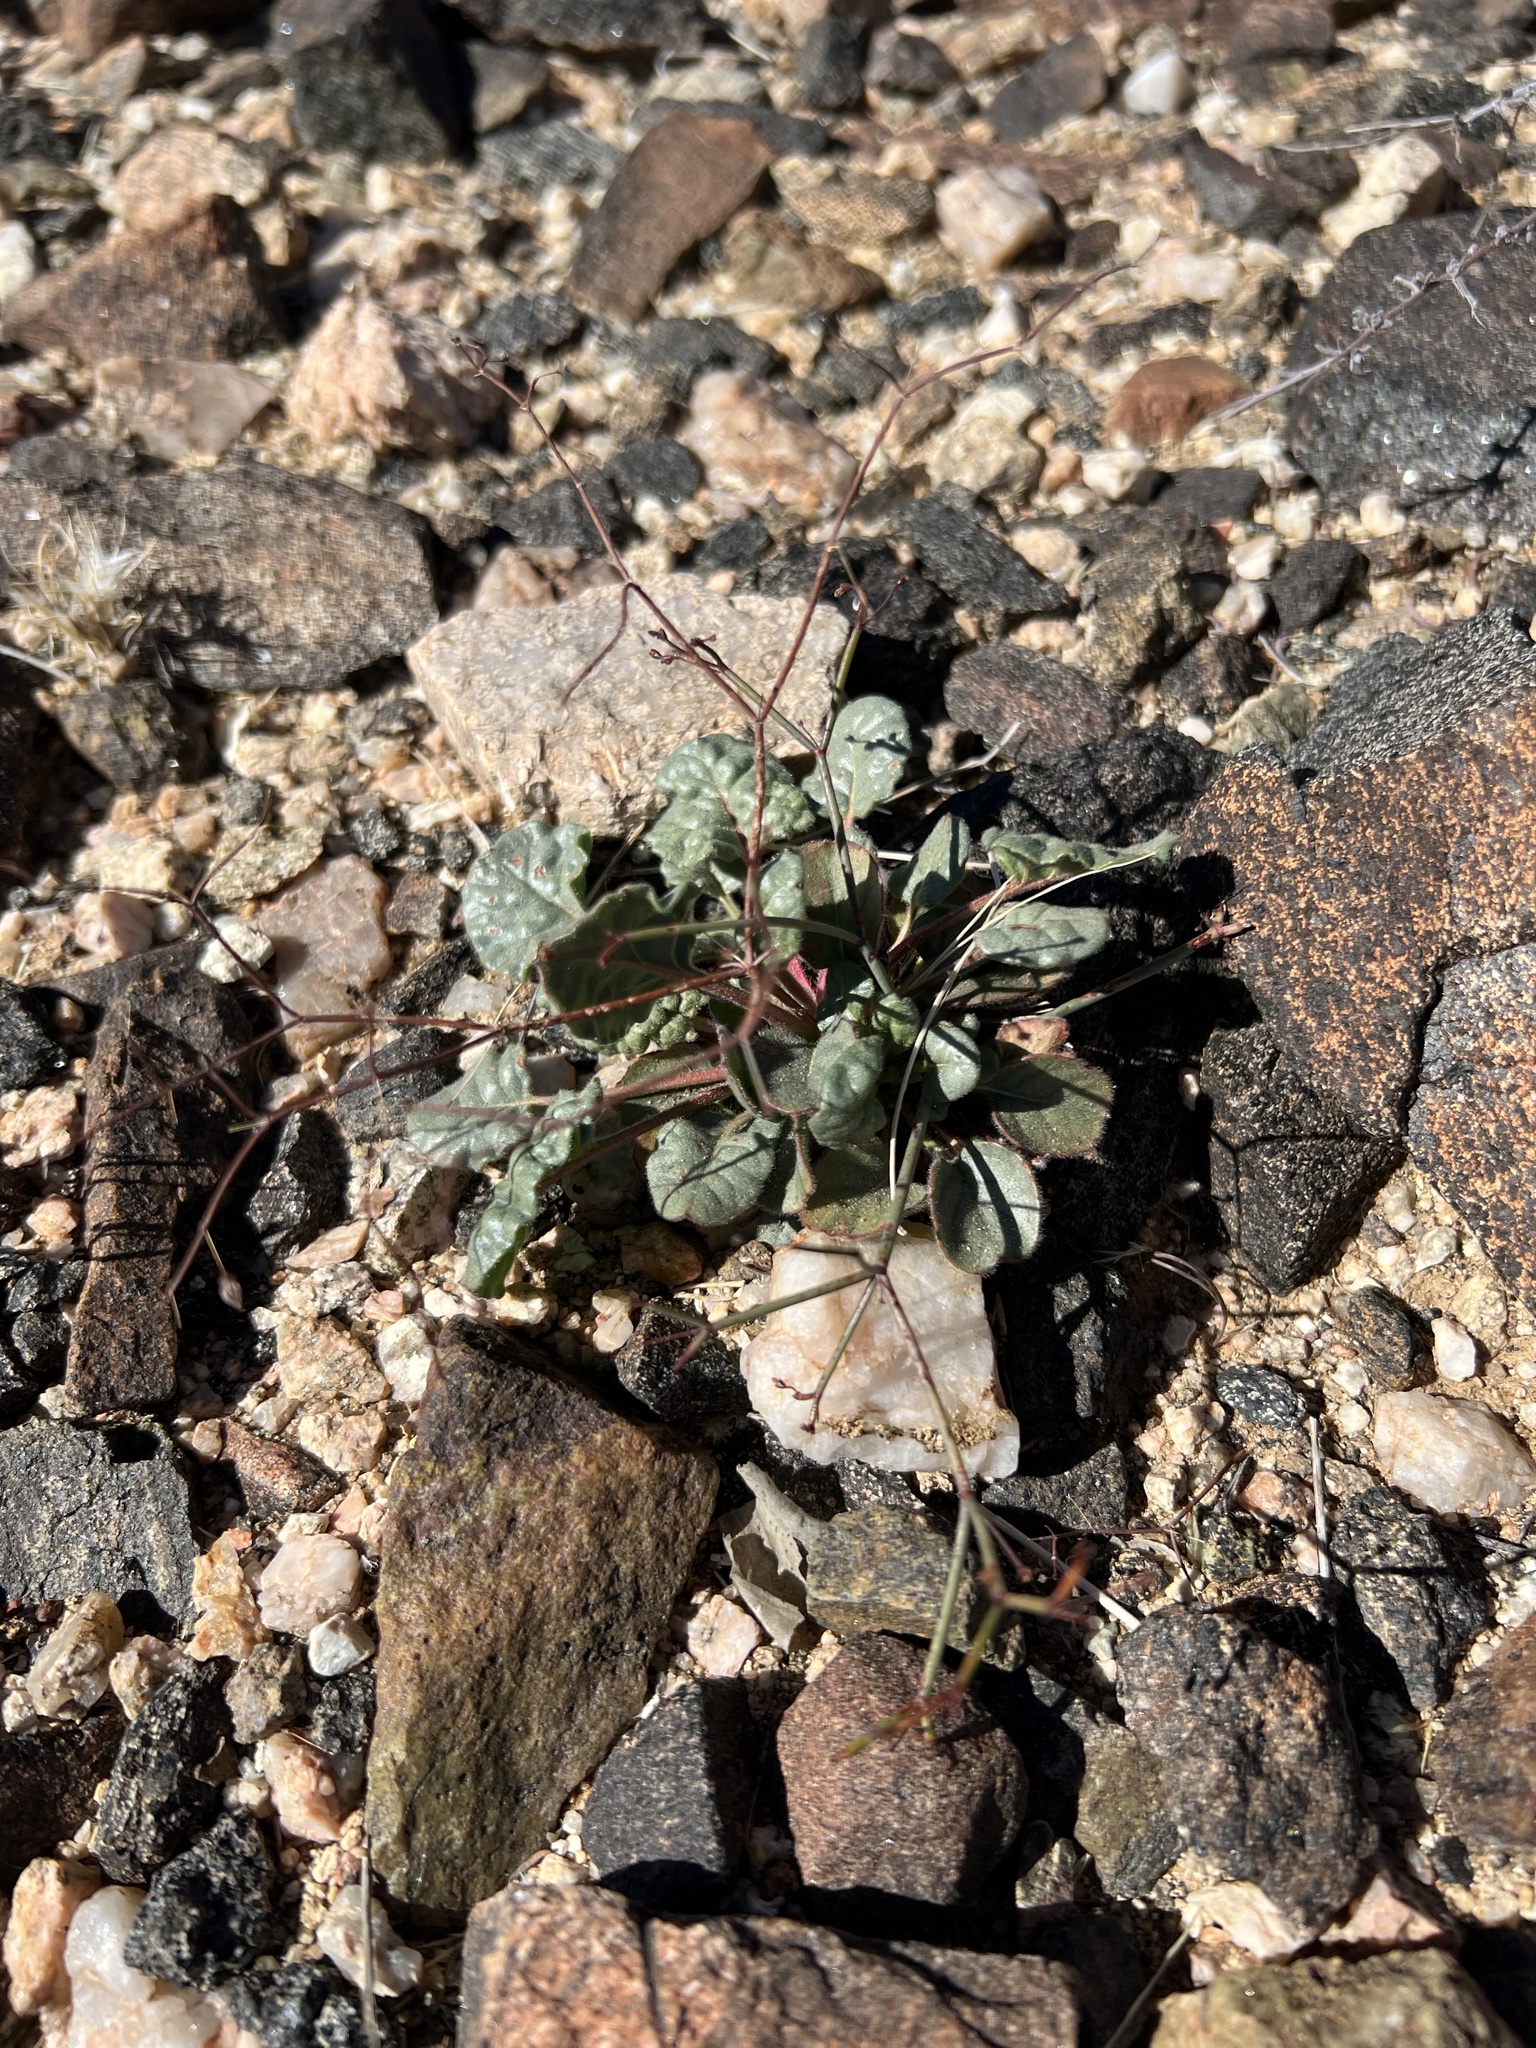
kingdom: Plantae
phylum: Tracheophyta
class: Magnoliopsida
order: Caryophyllales
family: Polygonaceae
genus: Eriogonum
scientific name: Eriogonum inflatum
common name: Desert trumpet
